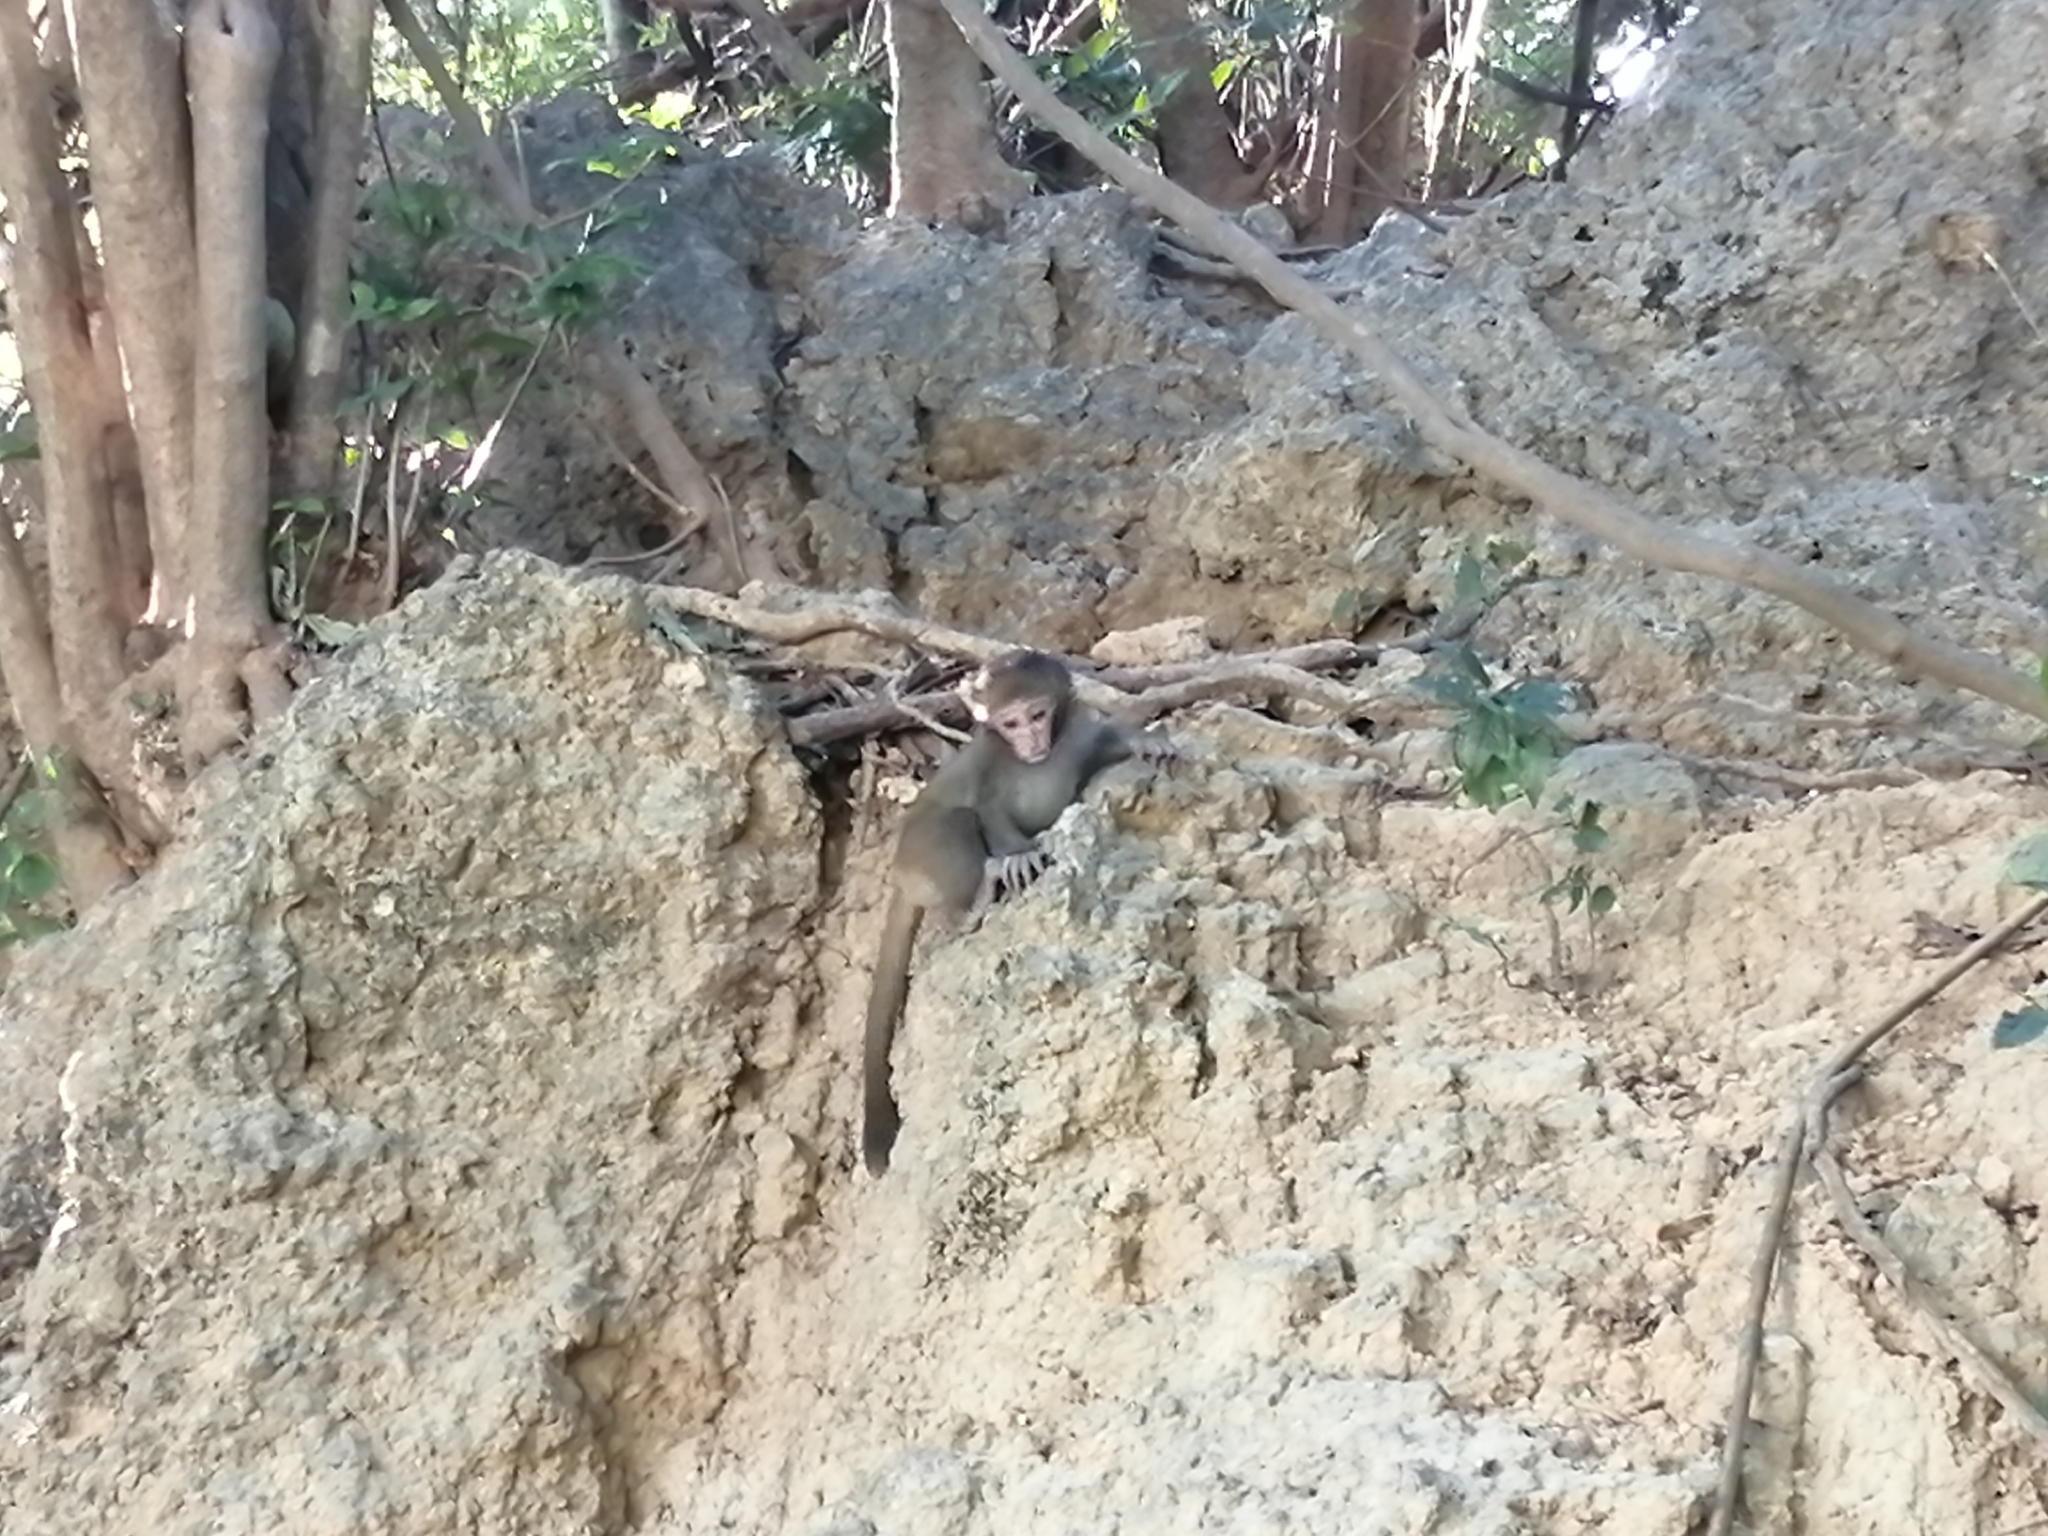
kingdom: Animalia
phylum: Chordata
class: Mammalia
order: Primates
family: Cercopithecidae
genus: Macaca
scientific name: Macaca cyclopis
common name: Formosan rock macaque
